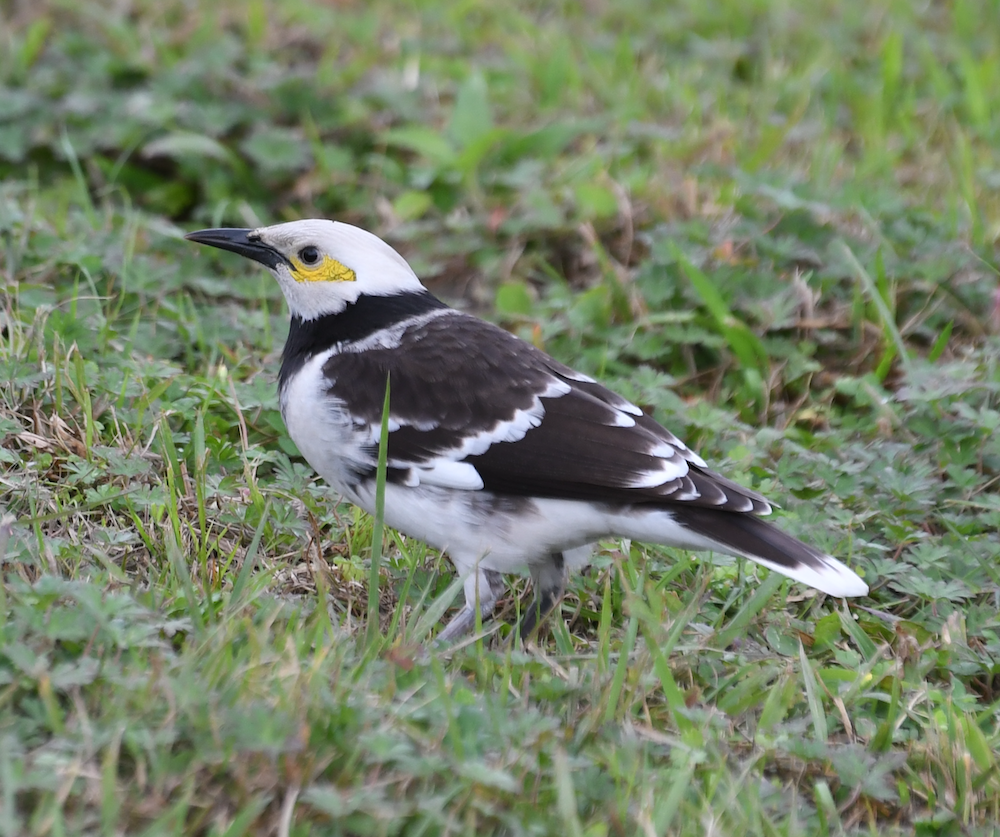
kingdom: Animalia
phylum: Chordata
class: Aves
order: Passeriformes
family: Sturnidae
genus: Gracupica
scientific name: Gracupica nigricollis
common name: Black-collared starling
